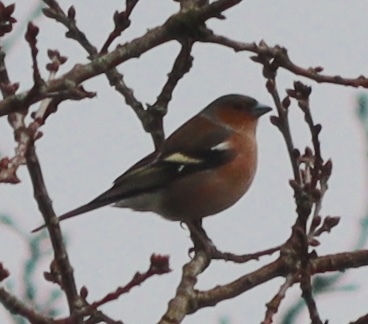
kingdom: Animalia
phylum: Chordata
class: Aves
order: Passeriformes
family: Fringillidae
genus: Fringilla
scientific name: Fringilla coelebs
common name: Common chaffinch
